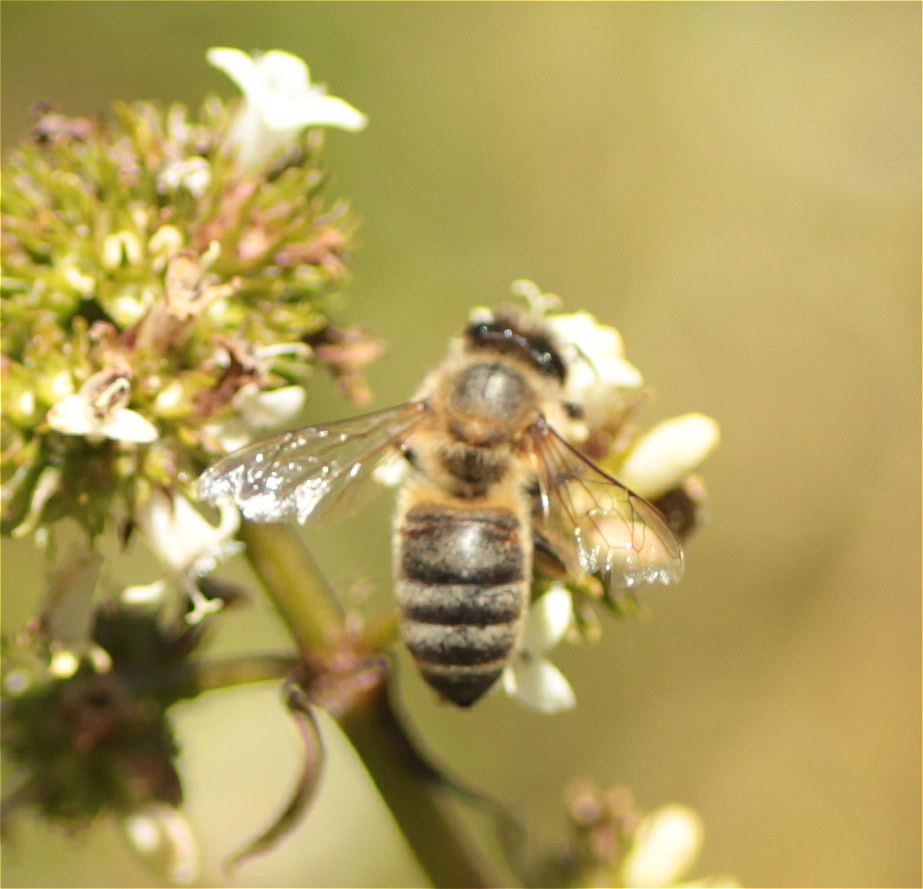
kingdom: Animalia
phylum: Arthropoda
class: Insecta
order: Hymenoptera
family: Apidae
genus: Apis
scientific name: Apis mellifera
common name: Honey bee
